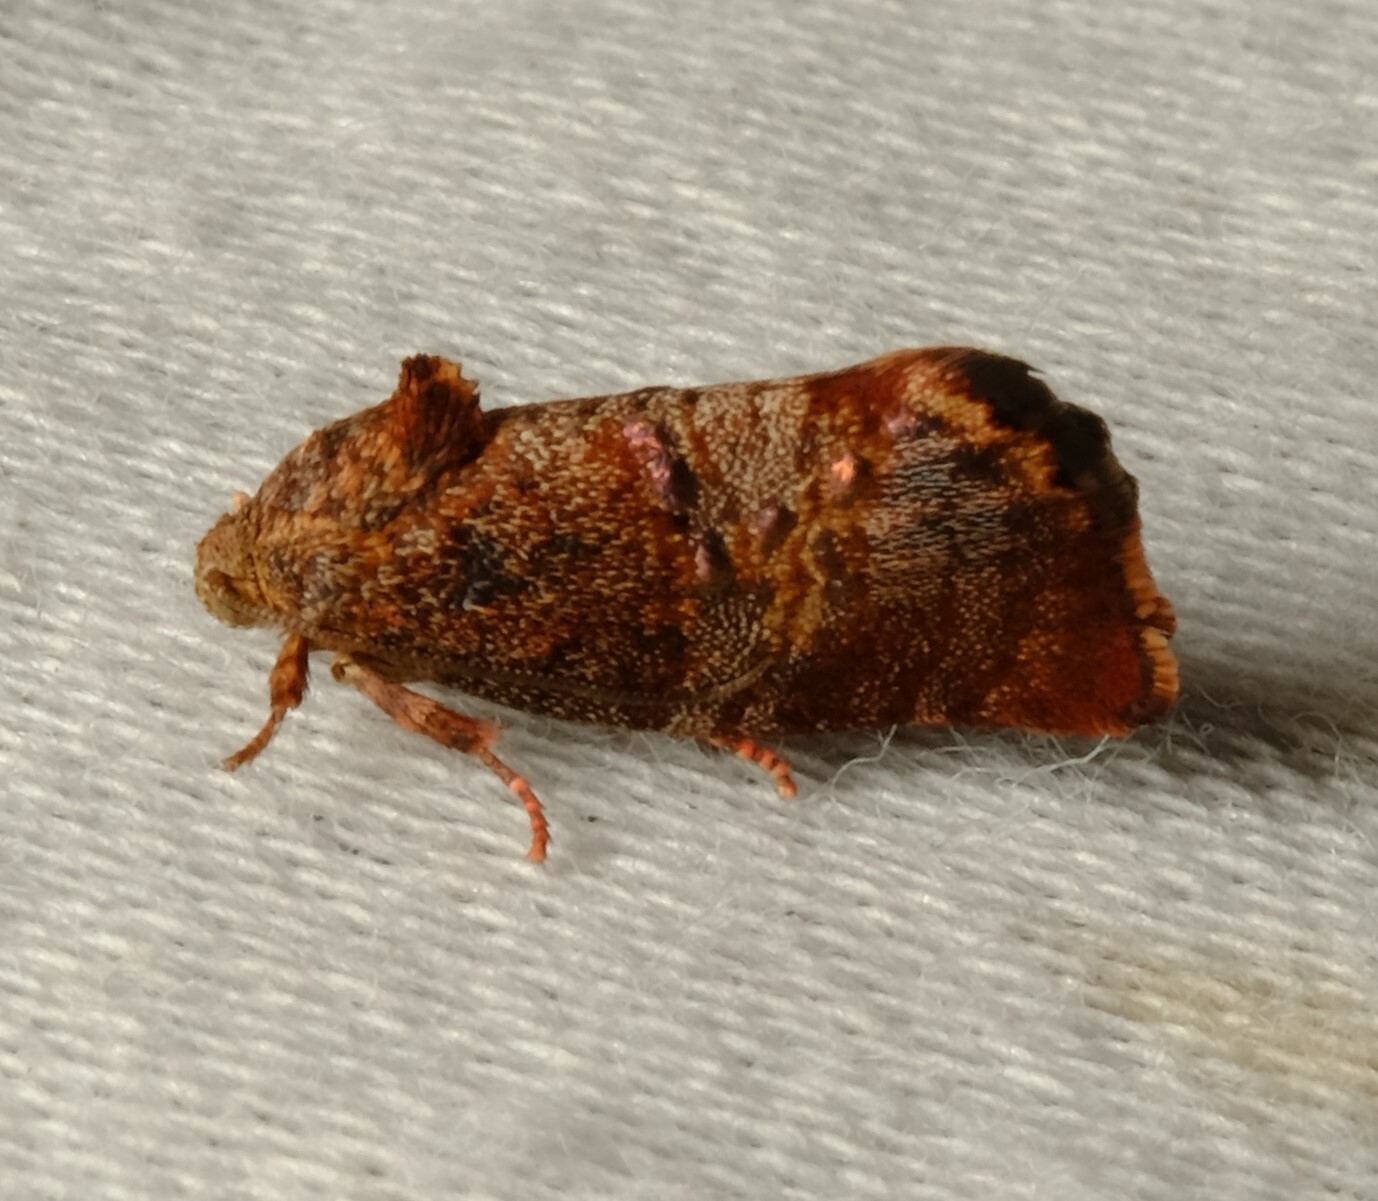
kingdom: Animalia
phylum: Arthropoda
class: Insecta
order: Lepidoptera
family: Depressariidae
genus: Peritropha
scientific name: Peritropha
